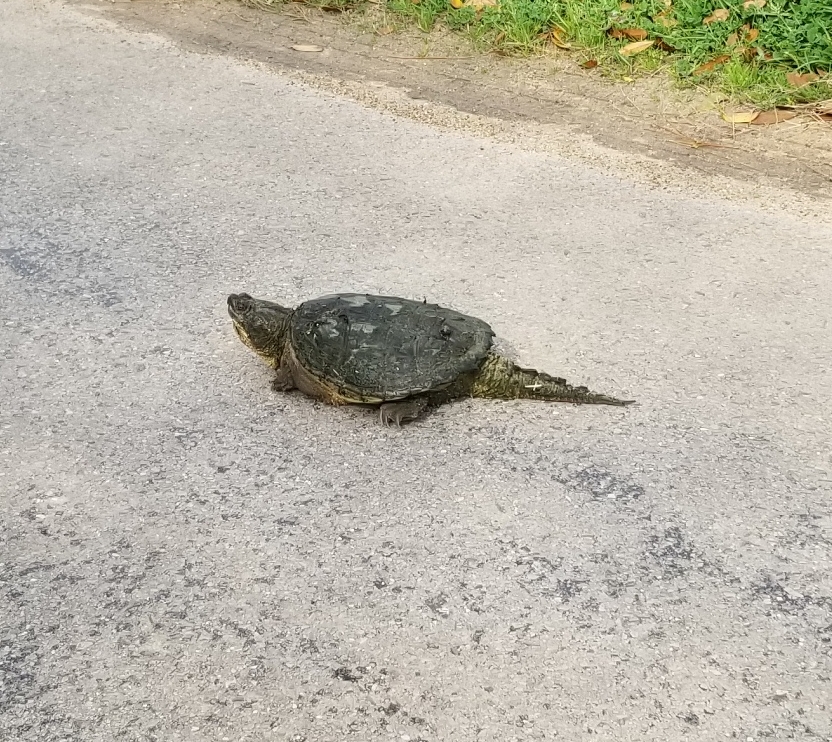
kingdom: Animalia
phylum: Chordata
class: Testudines
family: Chelydridae
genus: Chelydra
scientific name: Chelydra serpentina
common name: Common snapping turtle
